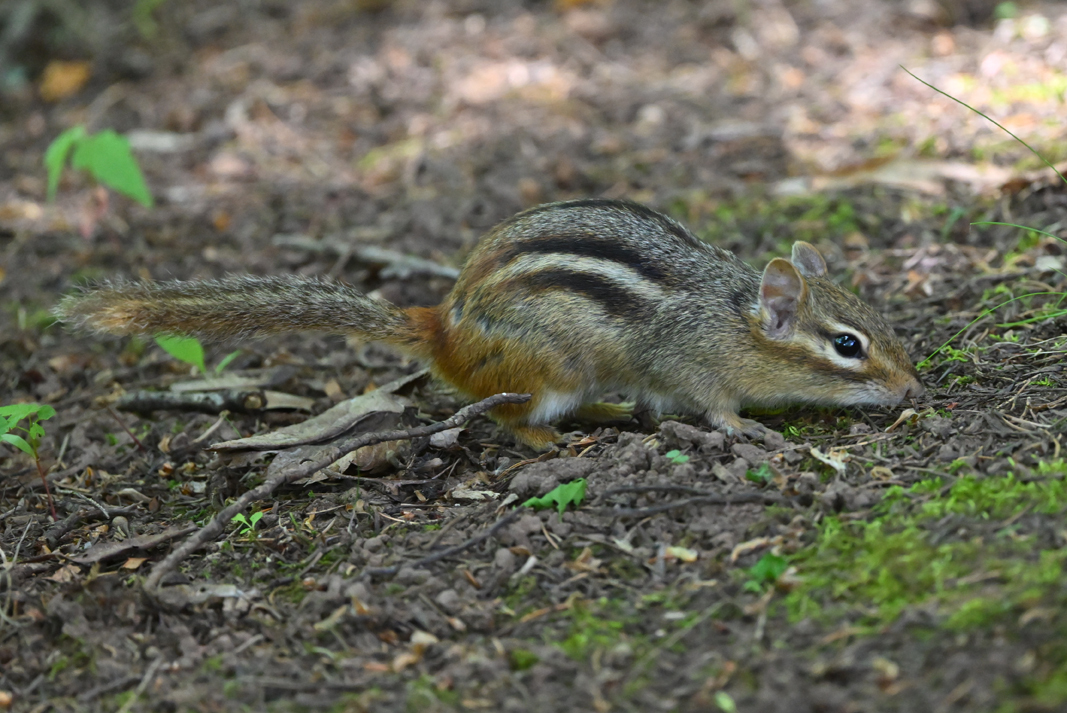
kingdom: Animalia
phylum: Chordata
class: Mammalia
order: Rodentia
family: Sciuridae
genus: Tamias
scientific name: Tamias striatus
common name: Eastern chipmunk
